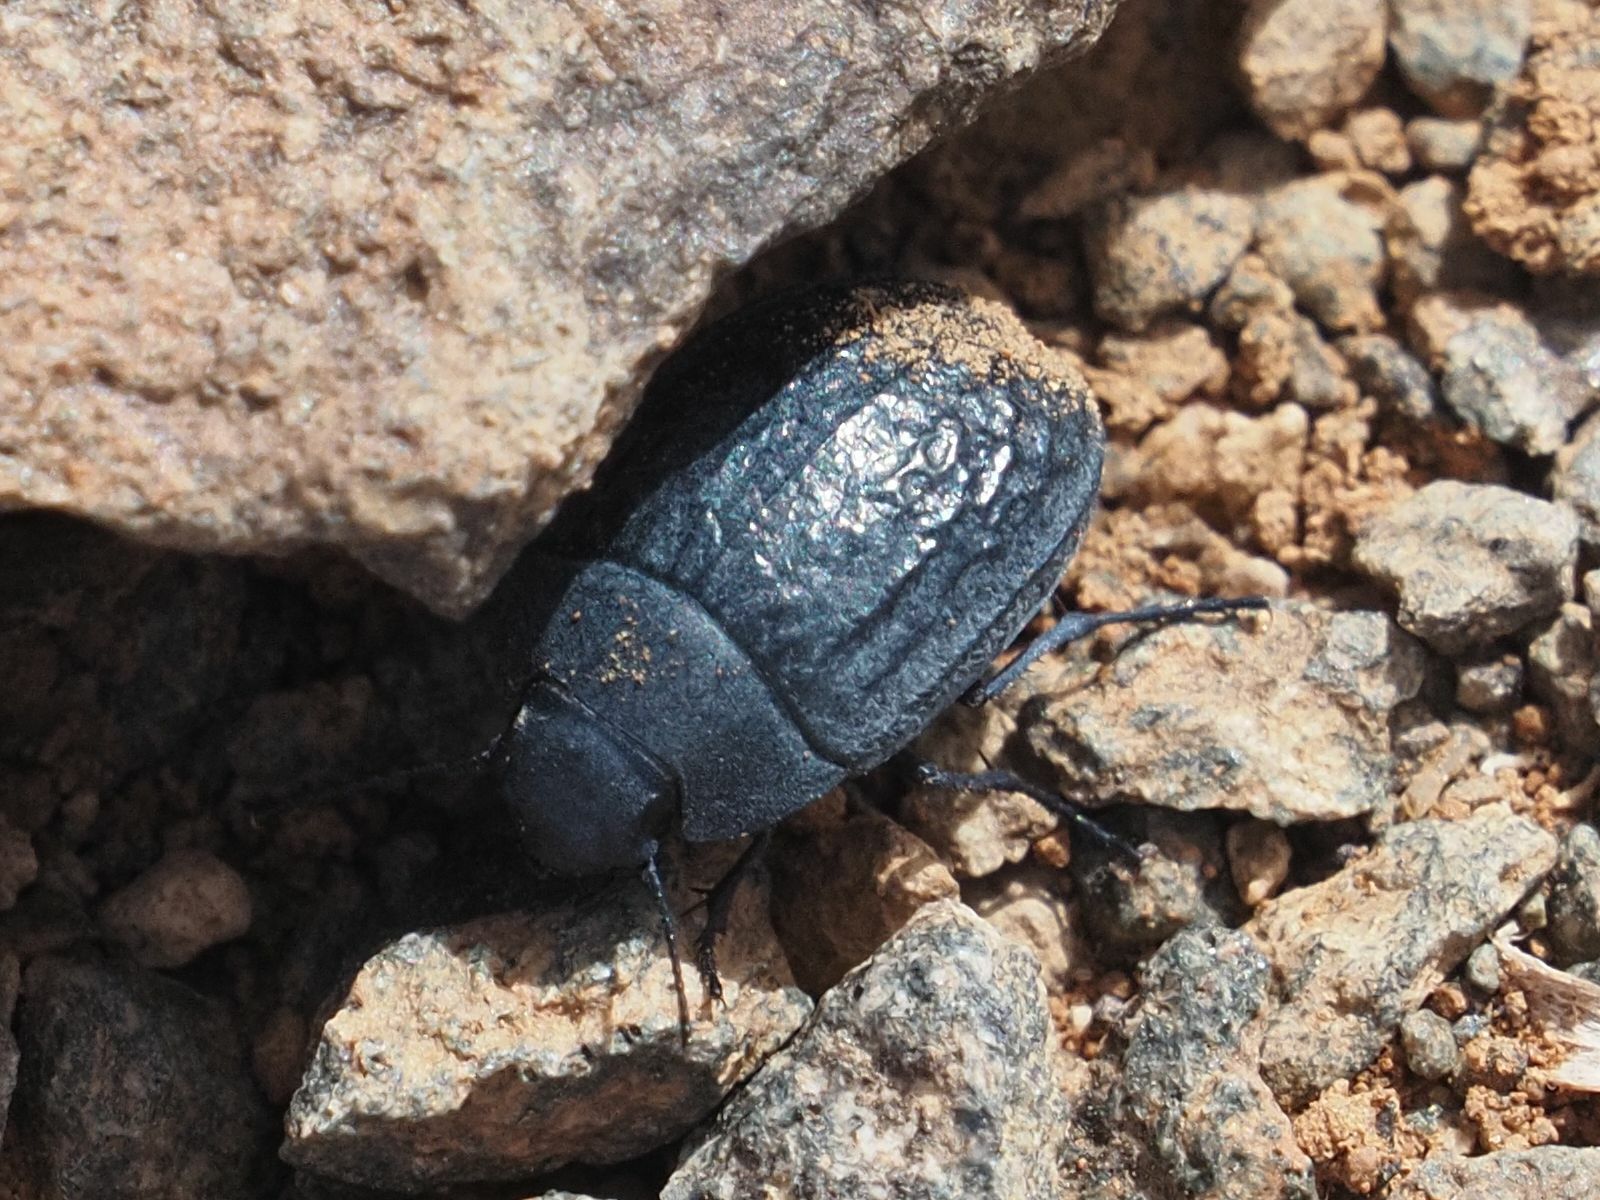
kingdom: Animalia
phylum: Arthropoda
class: Insecta
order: Coleoptera
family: Tenebrionidae
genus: Zophosis
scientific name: Zophosis bicarinata
